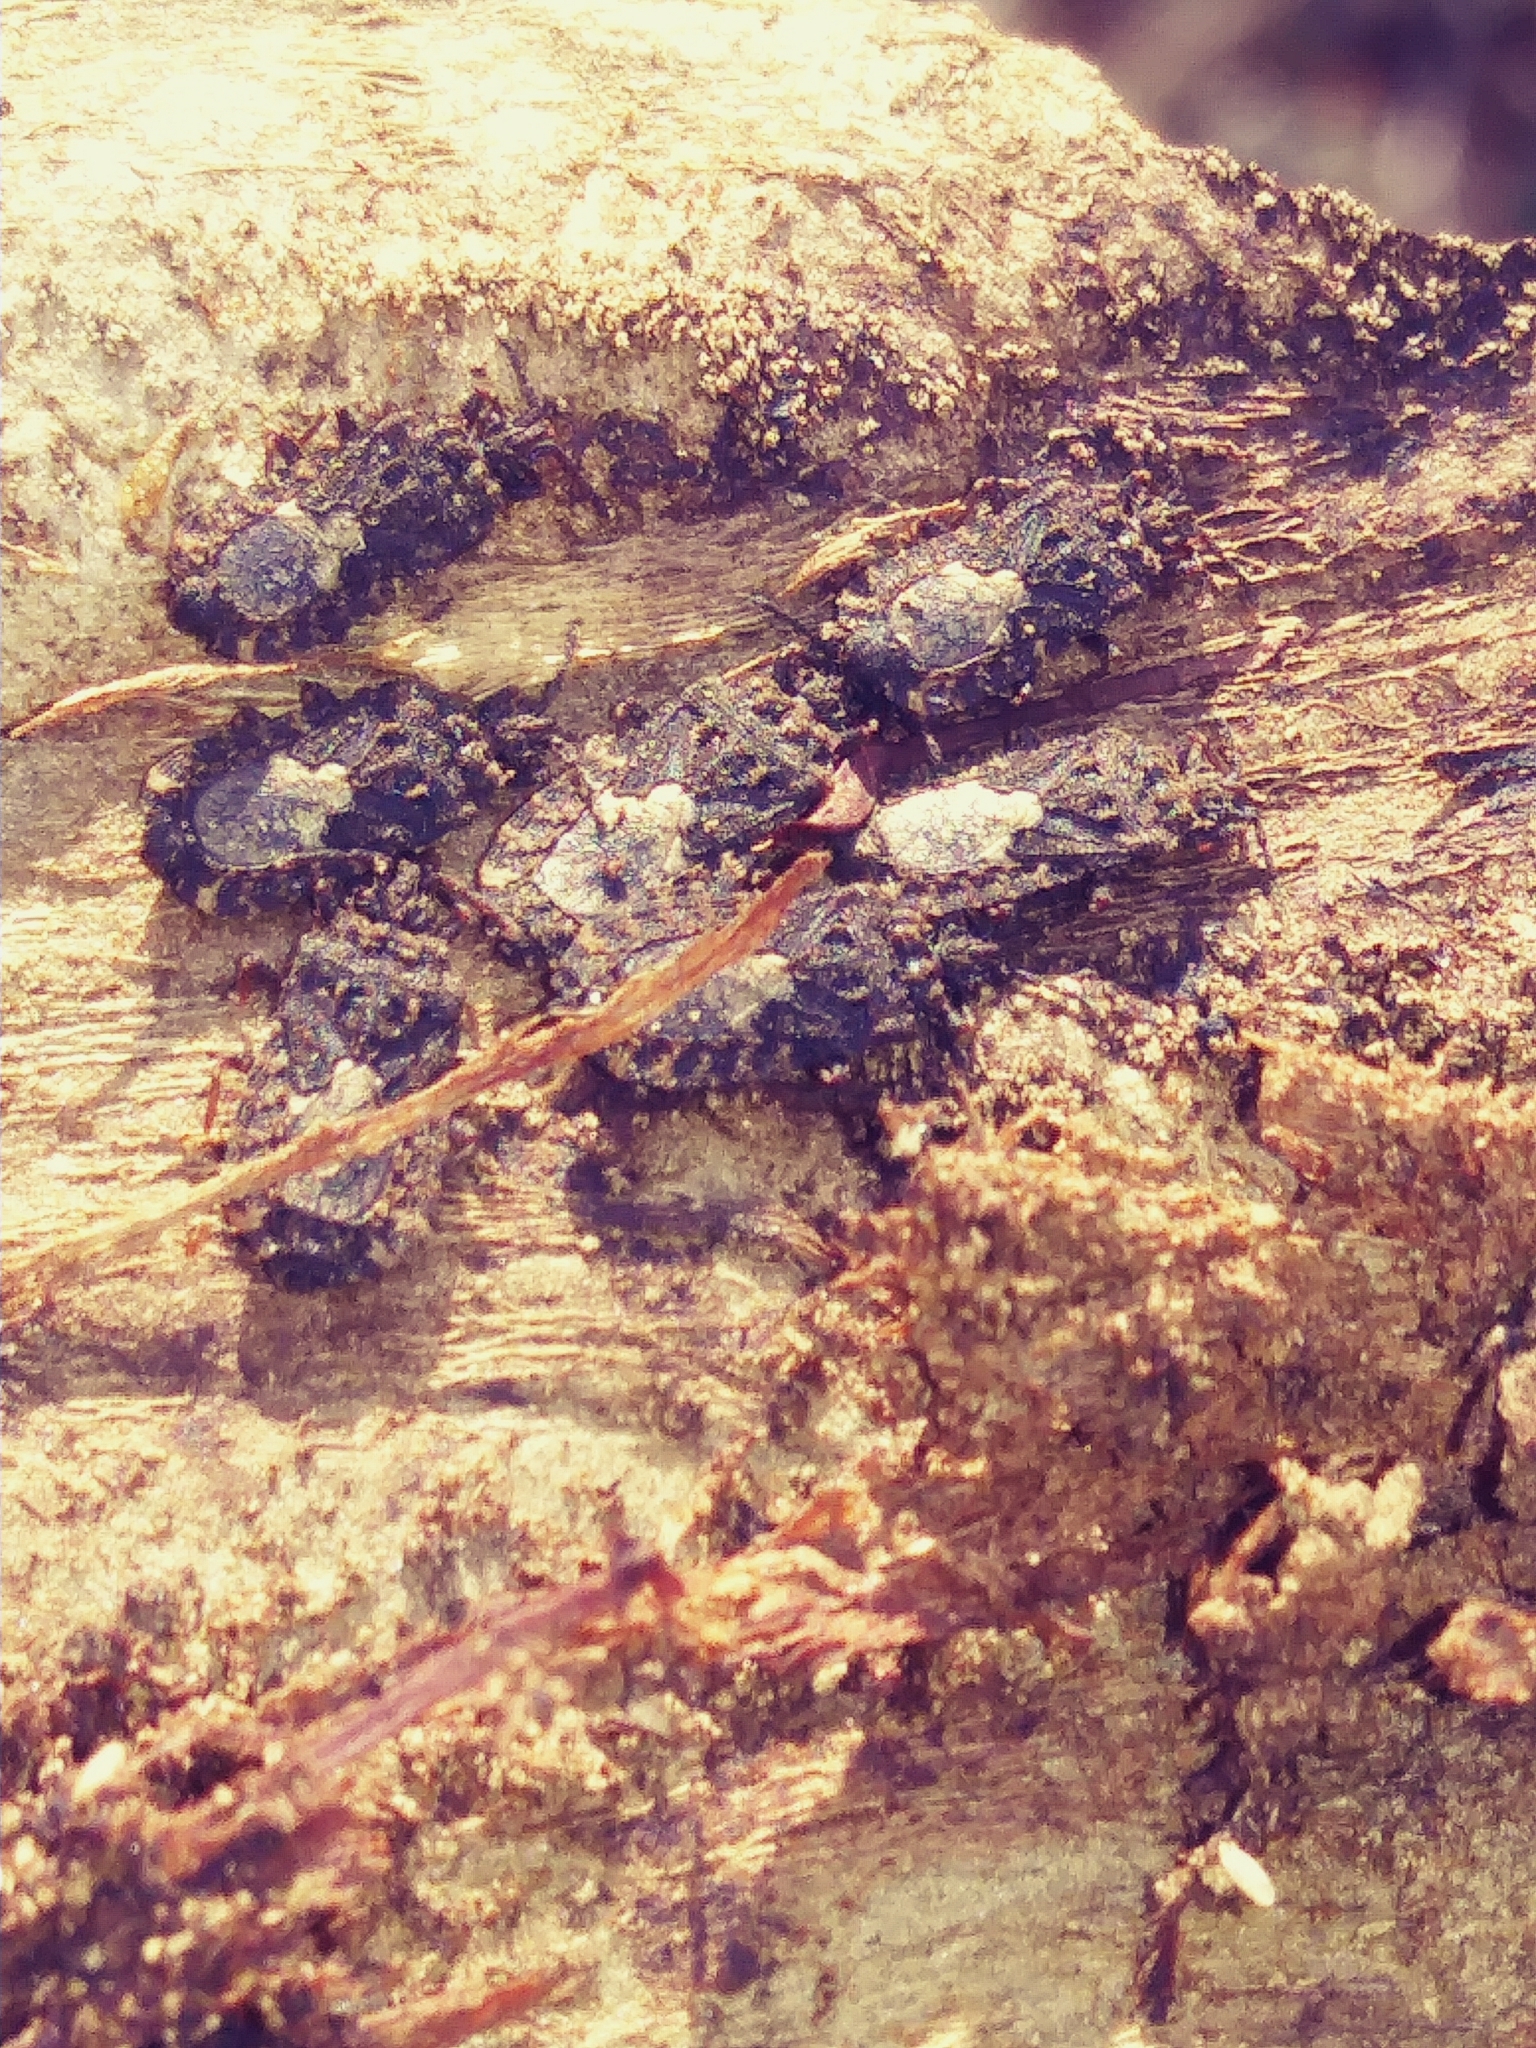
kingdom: Animalia
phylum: Arthropoda
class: Insecta
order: Hemiptera
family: Aradidae
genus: Mezira
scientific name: Mezira
